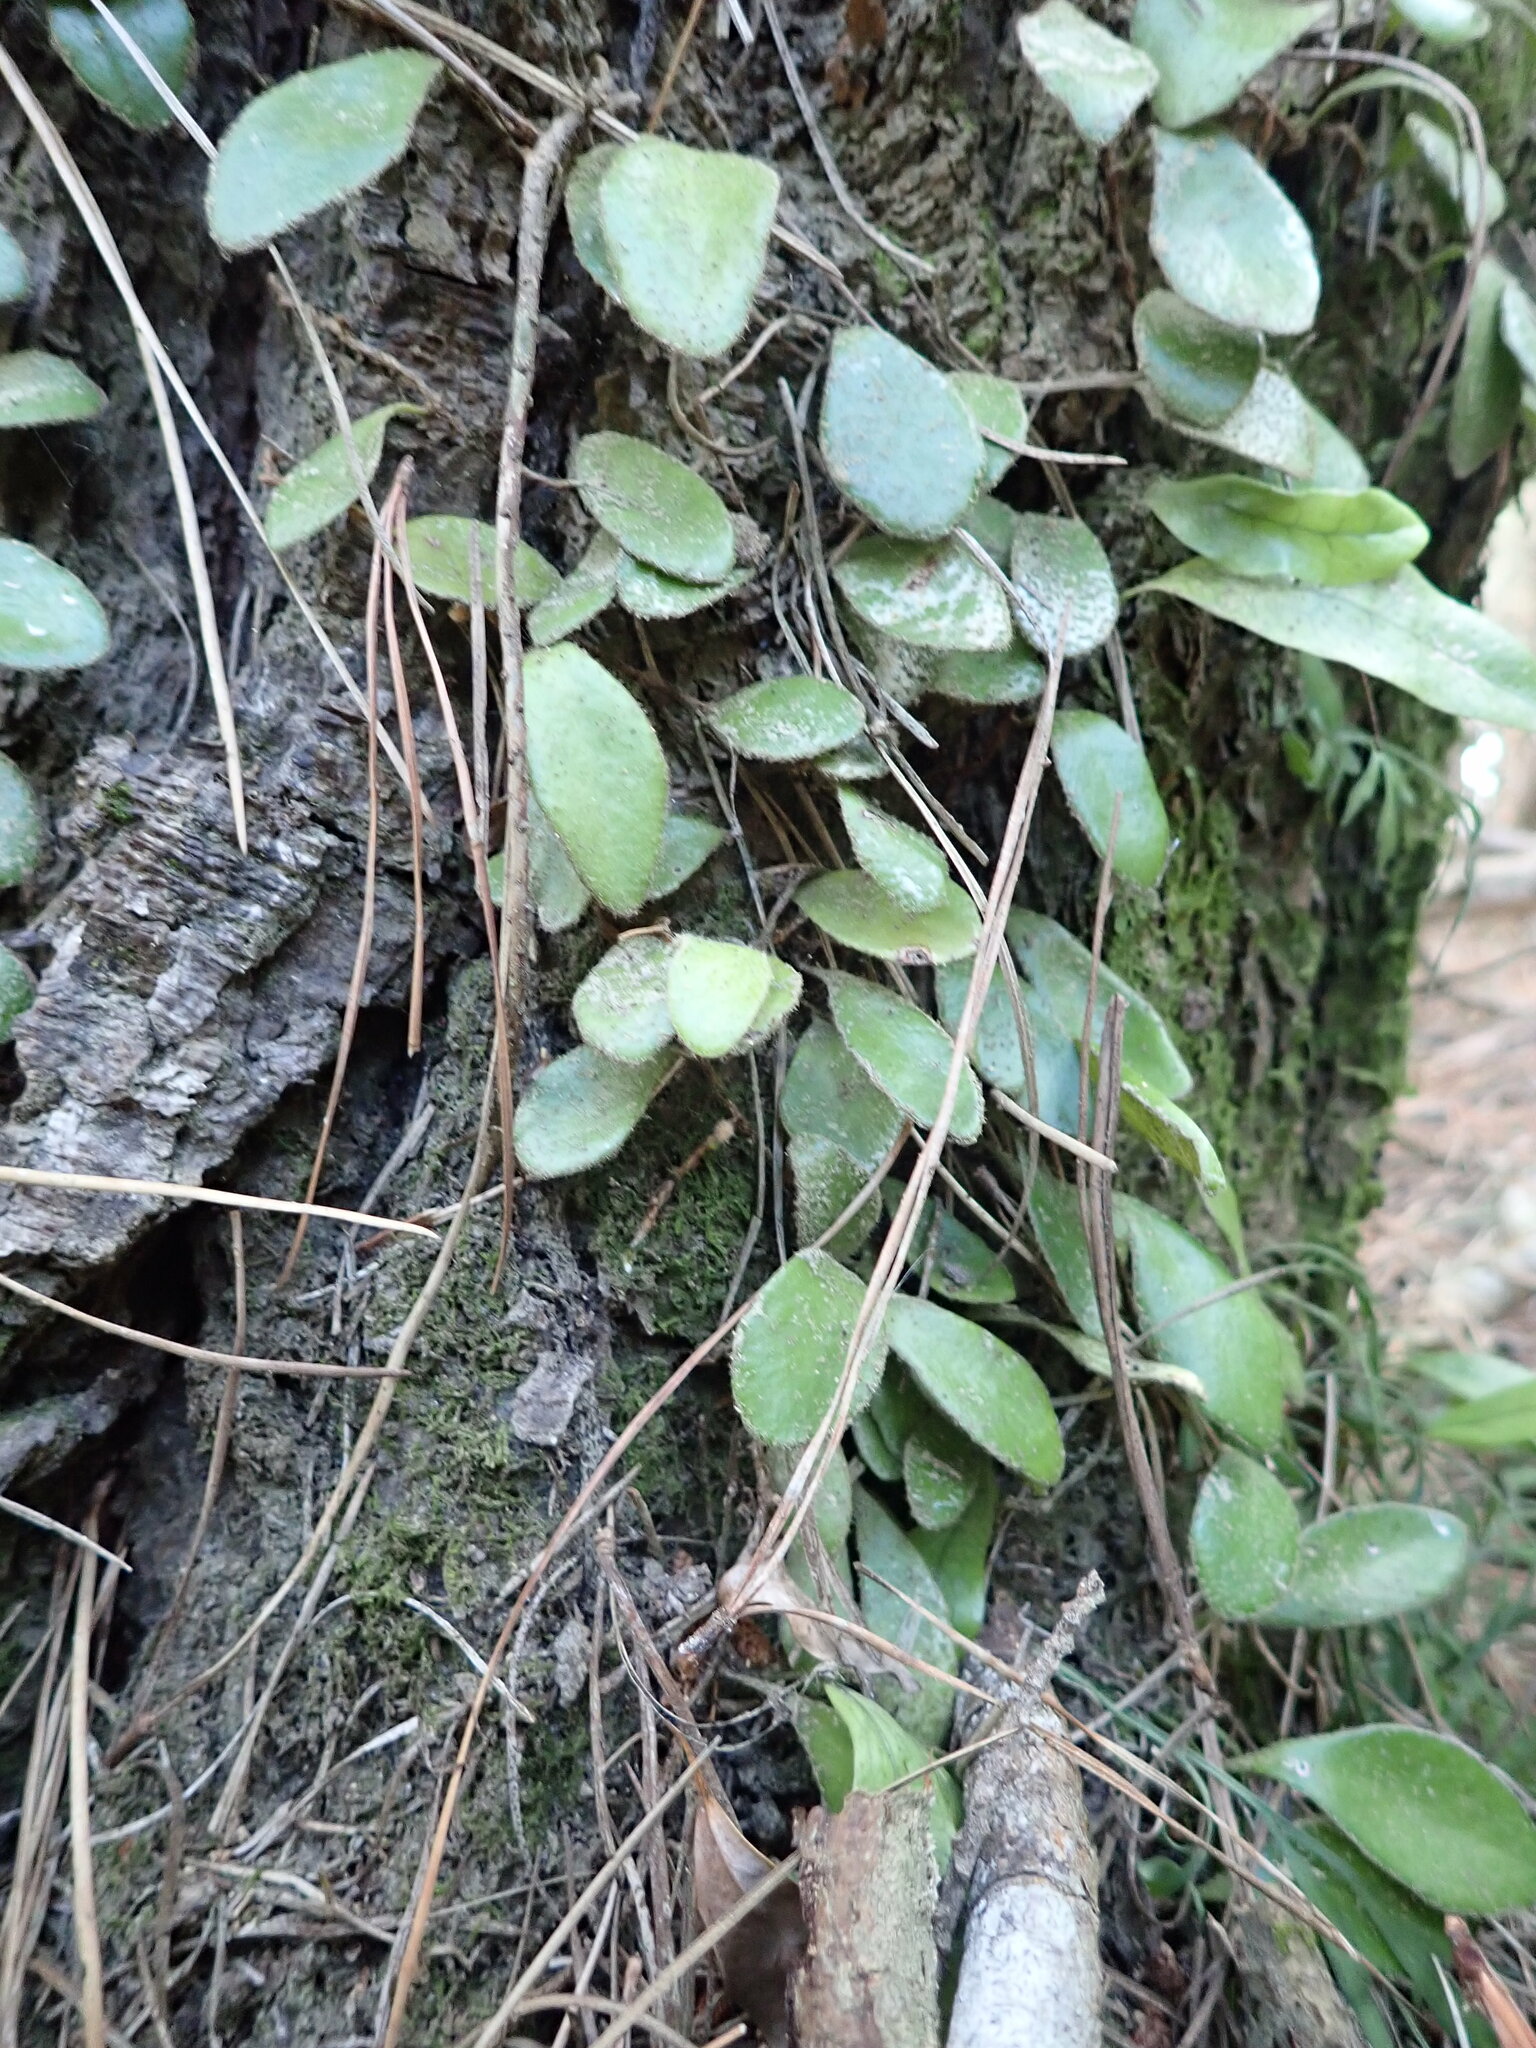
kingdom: Plantae
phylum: Tracheophyta
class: Polypodiopsida
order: Polypodiales
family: Polypodiaceae
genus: Pyrrosia
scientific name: Pyrrosia eleagnifolia
